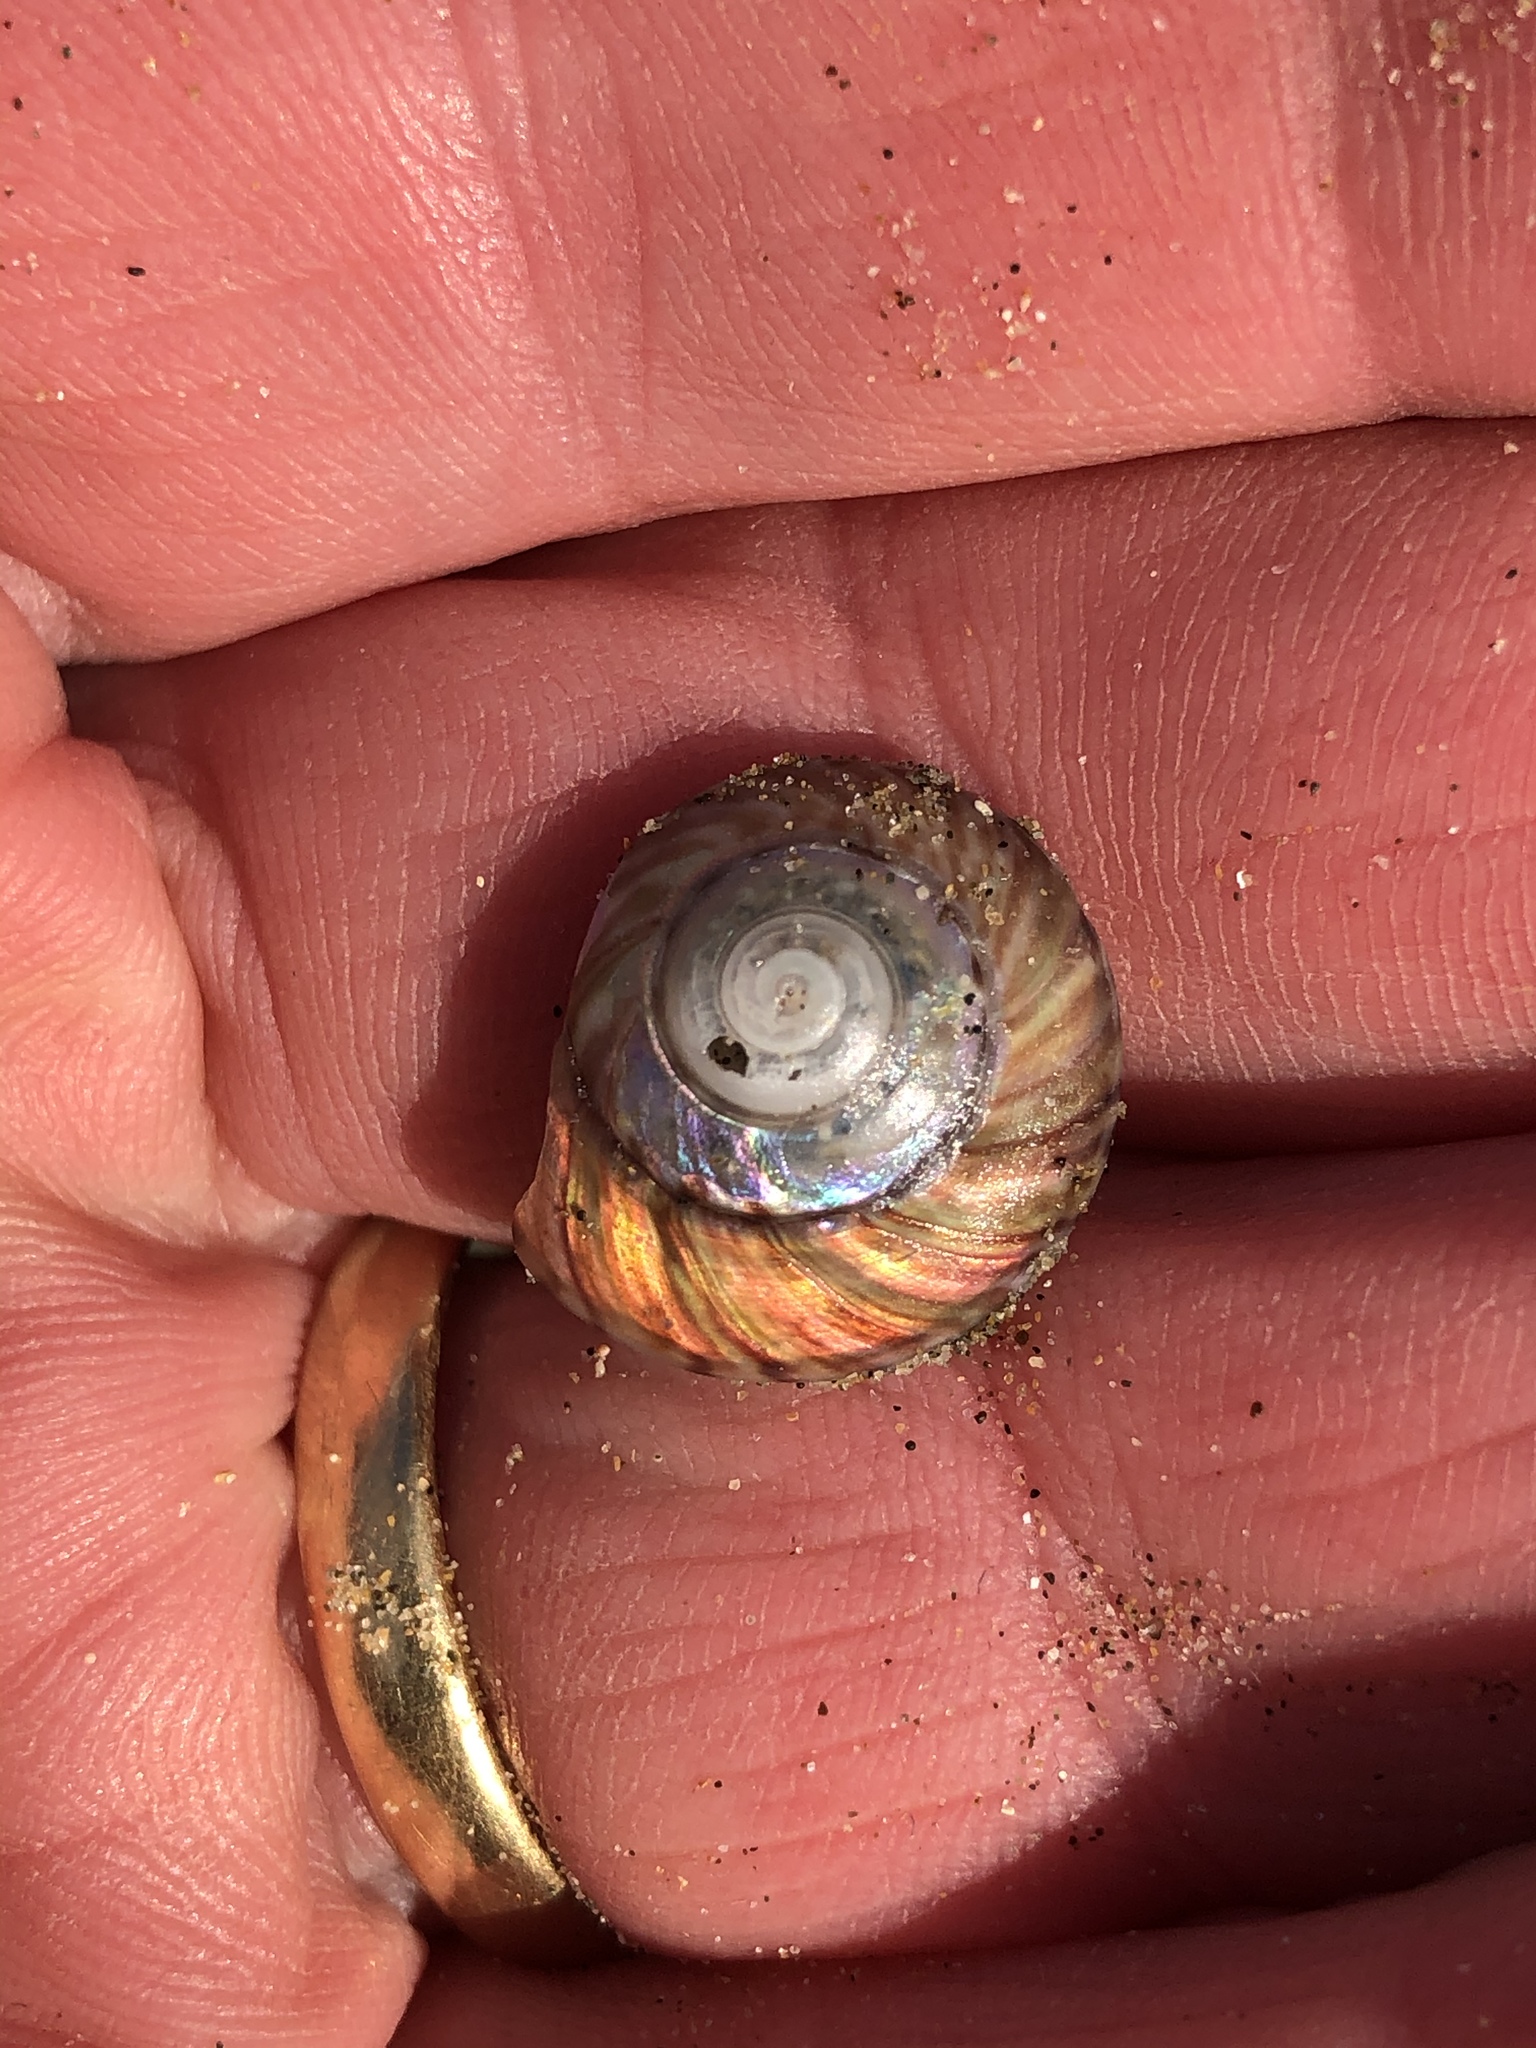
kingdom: Animalia
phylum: Mollusca
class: Gastropoda
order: Trochida
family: Trochidae
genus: Zethalia
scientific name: Zethalia zelandica
